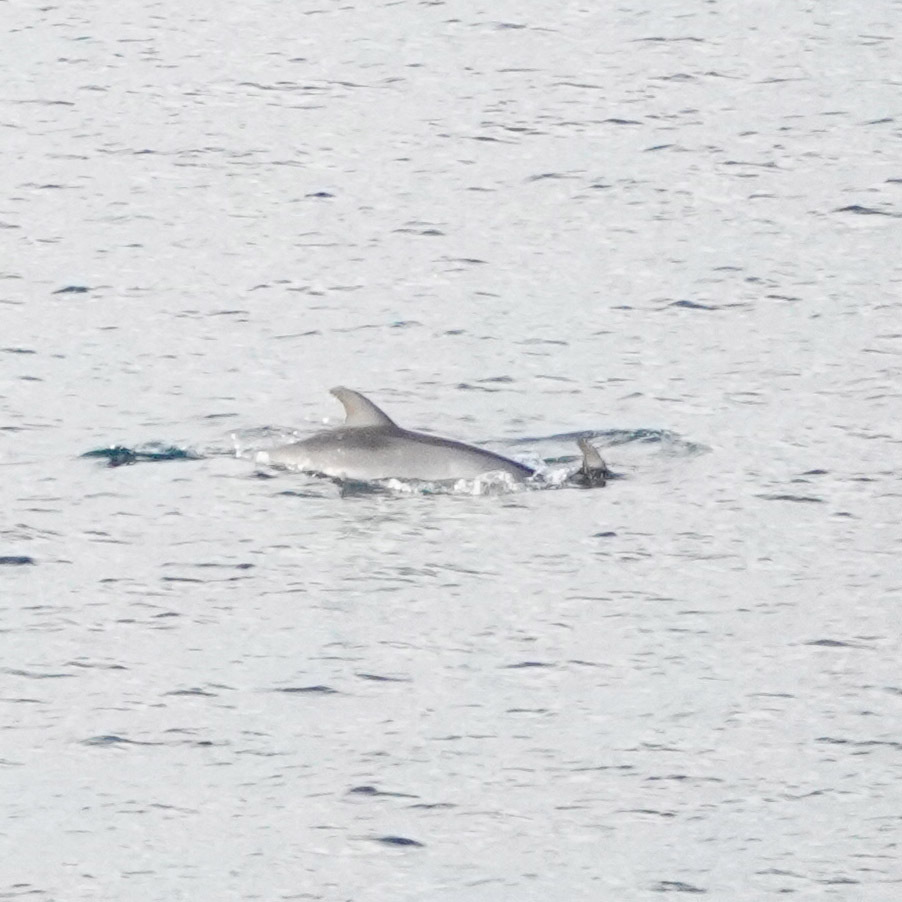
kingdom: Animalia
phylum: Chordata
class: Mammalia
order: Cetacea
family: Delphinidae
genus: Tursiops
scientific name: Tursiops truncatus
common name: Bottlenose dolphin
